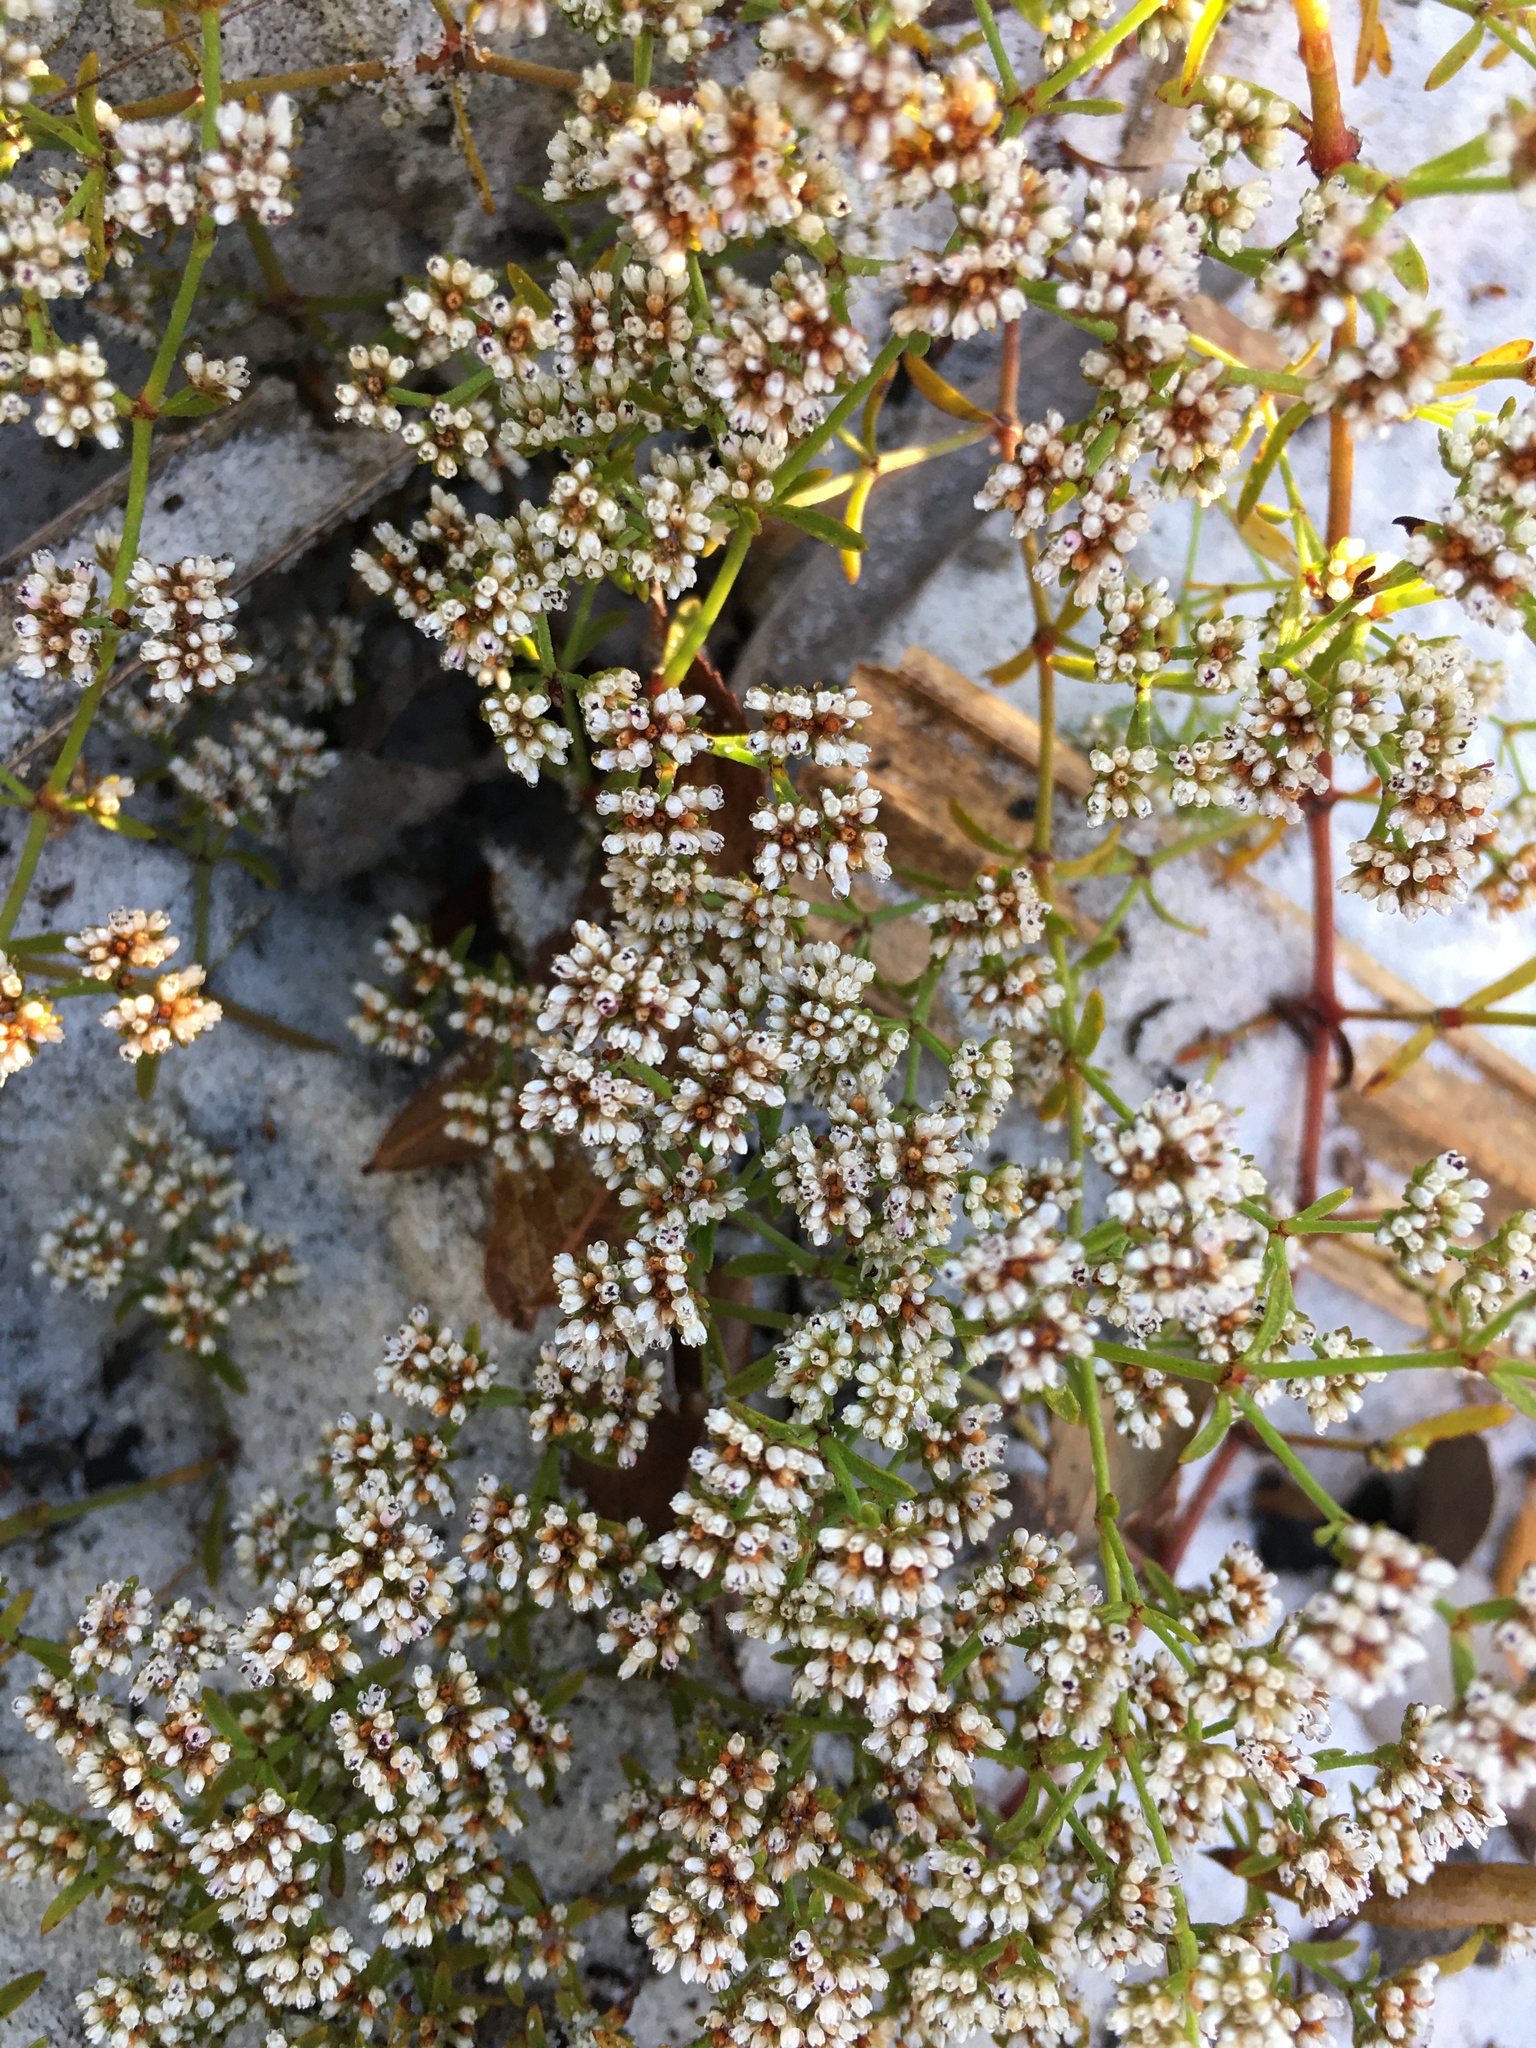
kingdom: Plantae
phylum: Tracheophyta
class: Magnoliopsida
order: Caryophyllales
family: Caryophyllaceae
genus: Paronychia
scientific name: Paronychia patula
